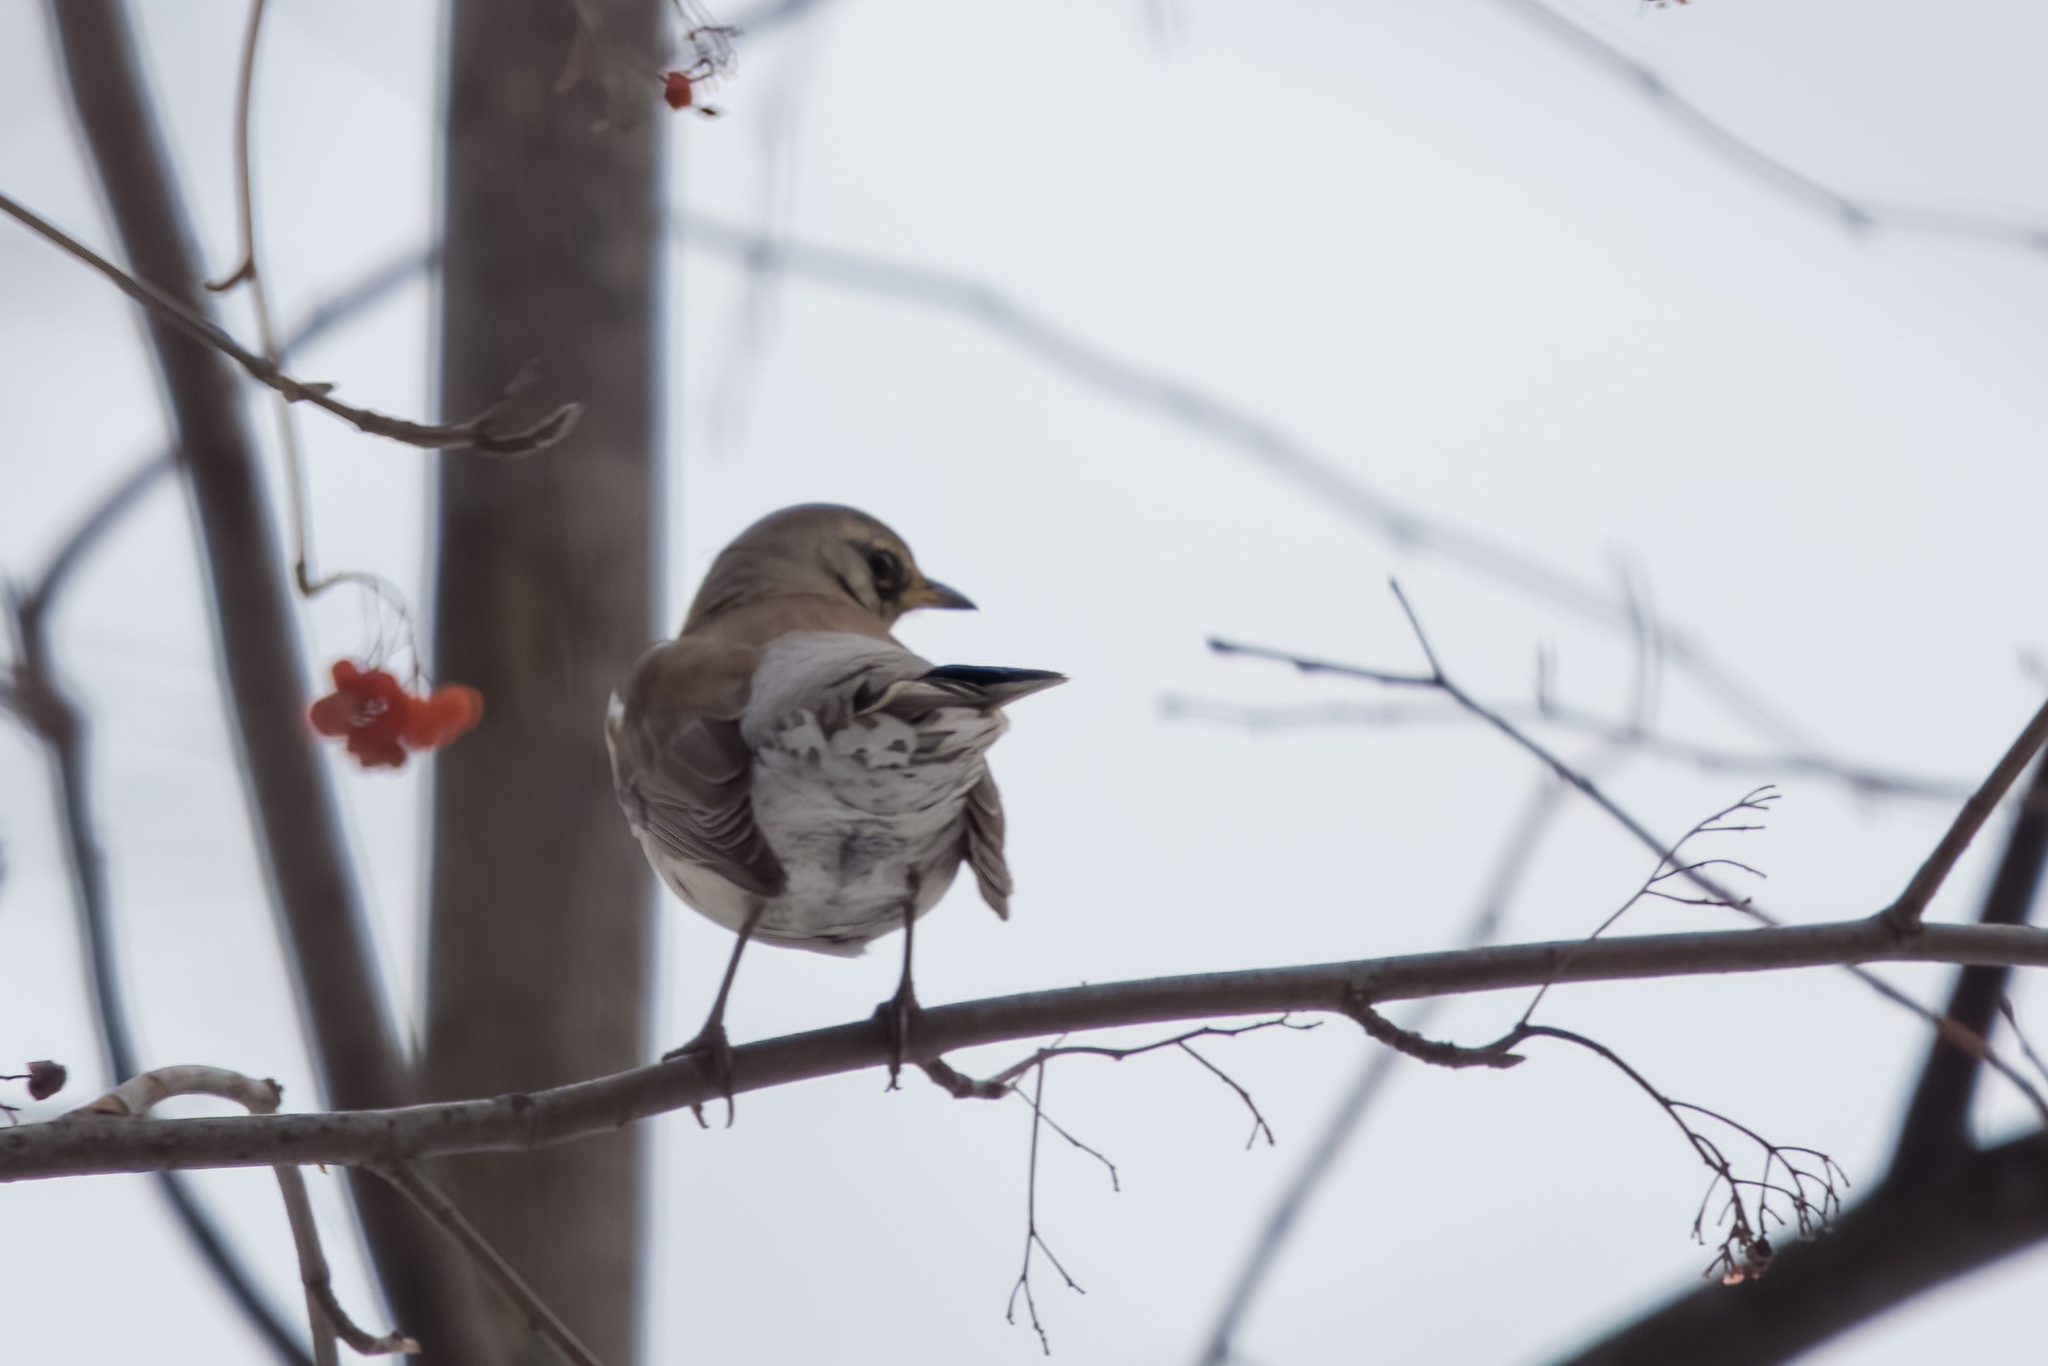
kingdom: Animalia
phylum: Chordata
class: Aves
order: Passeriformes
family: Turdidae
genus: Turdus
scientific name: Turdus pilaris
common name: Fieldfare
